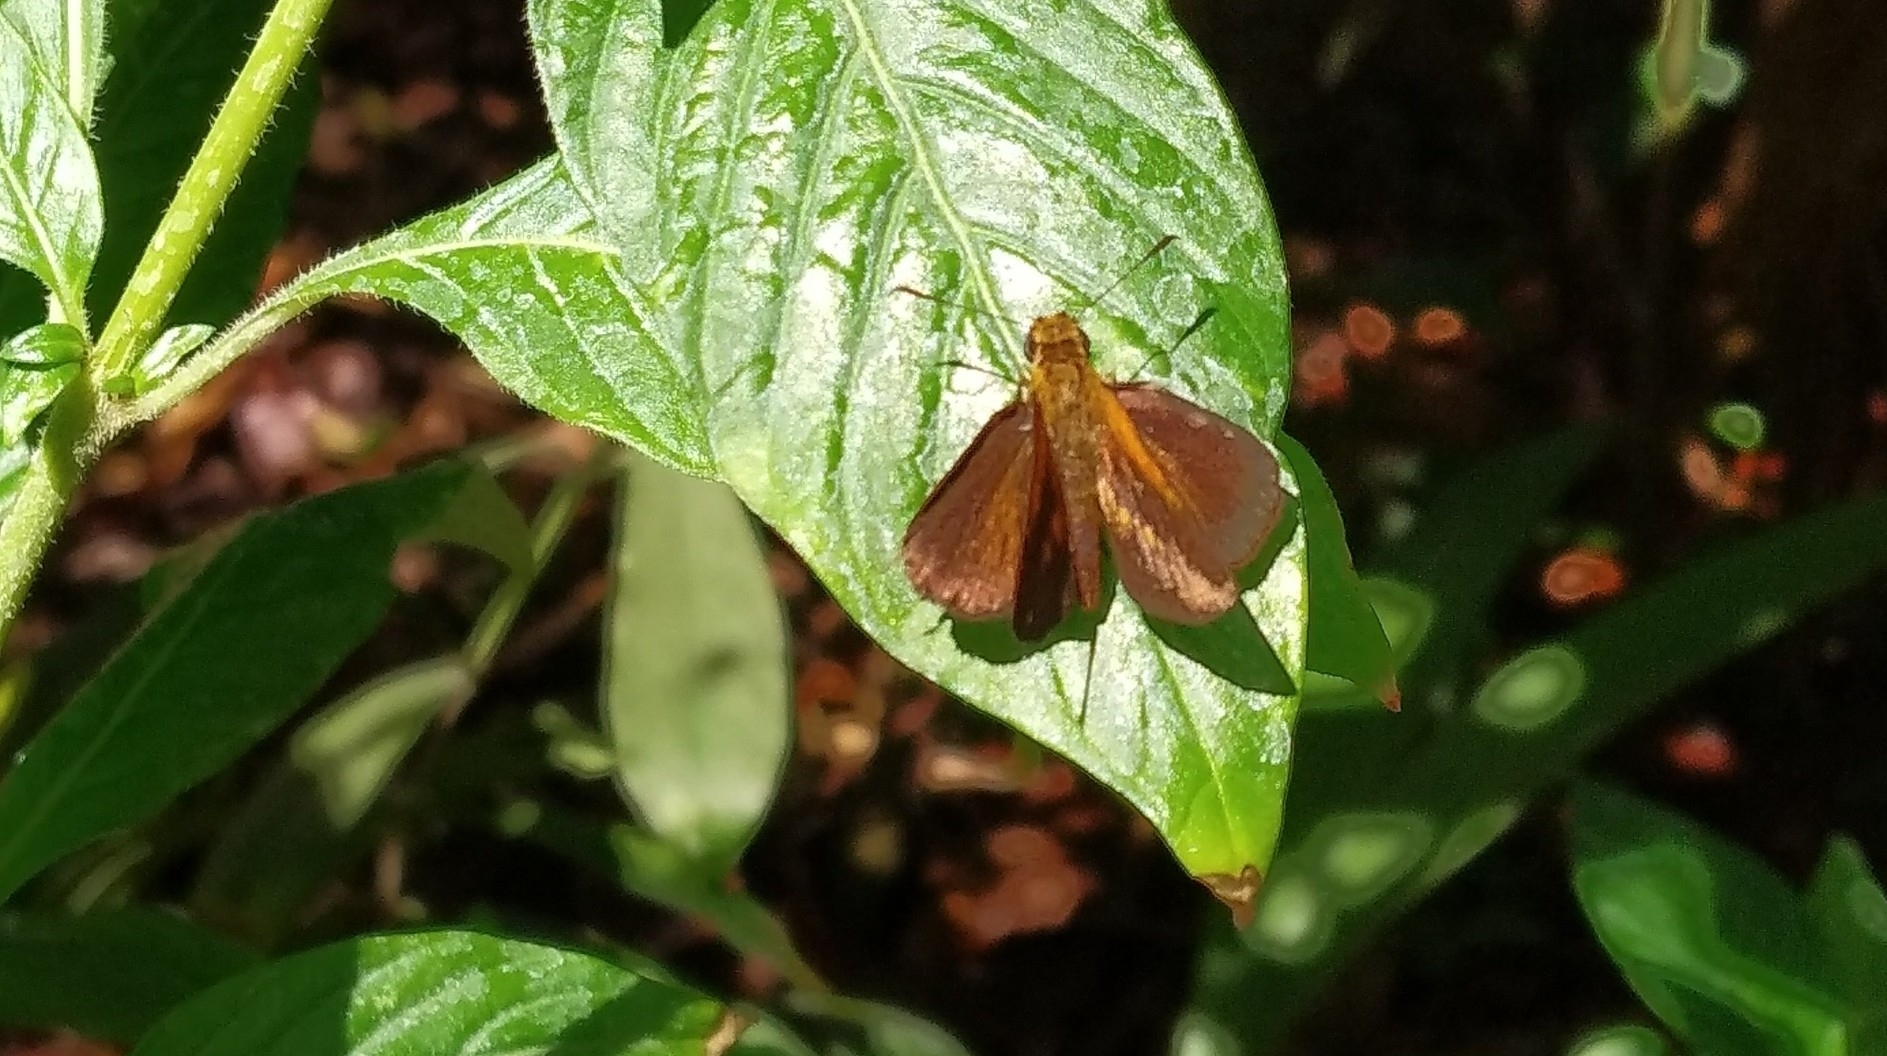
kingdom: Animalia
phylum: Arthropoda
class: Insecta
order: Lepidoptera
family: Hesperiidae
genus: Iambrix
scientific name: Iambrix salsala
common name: Chestnut bob
